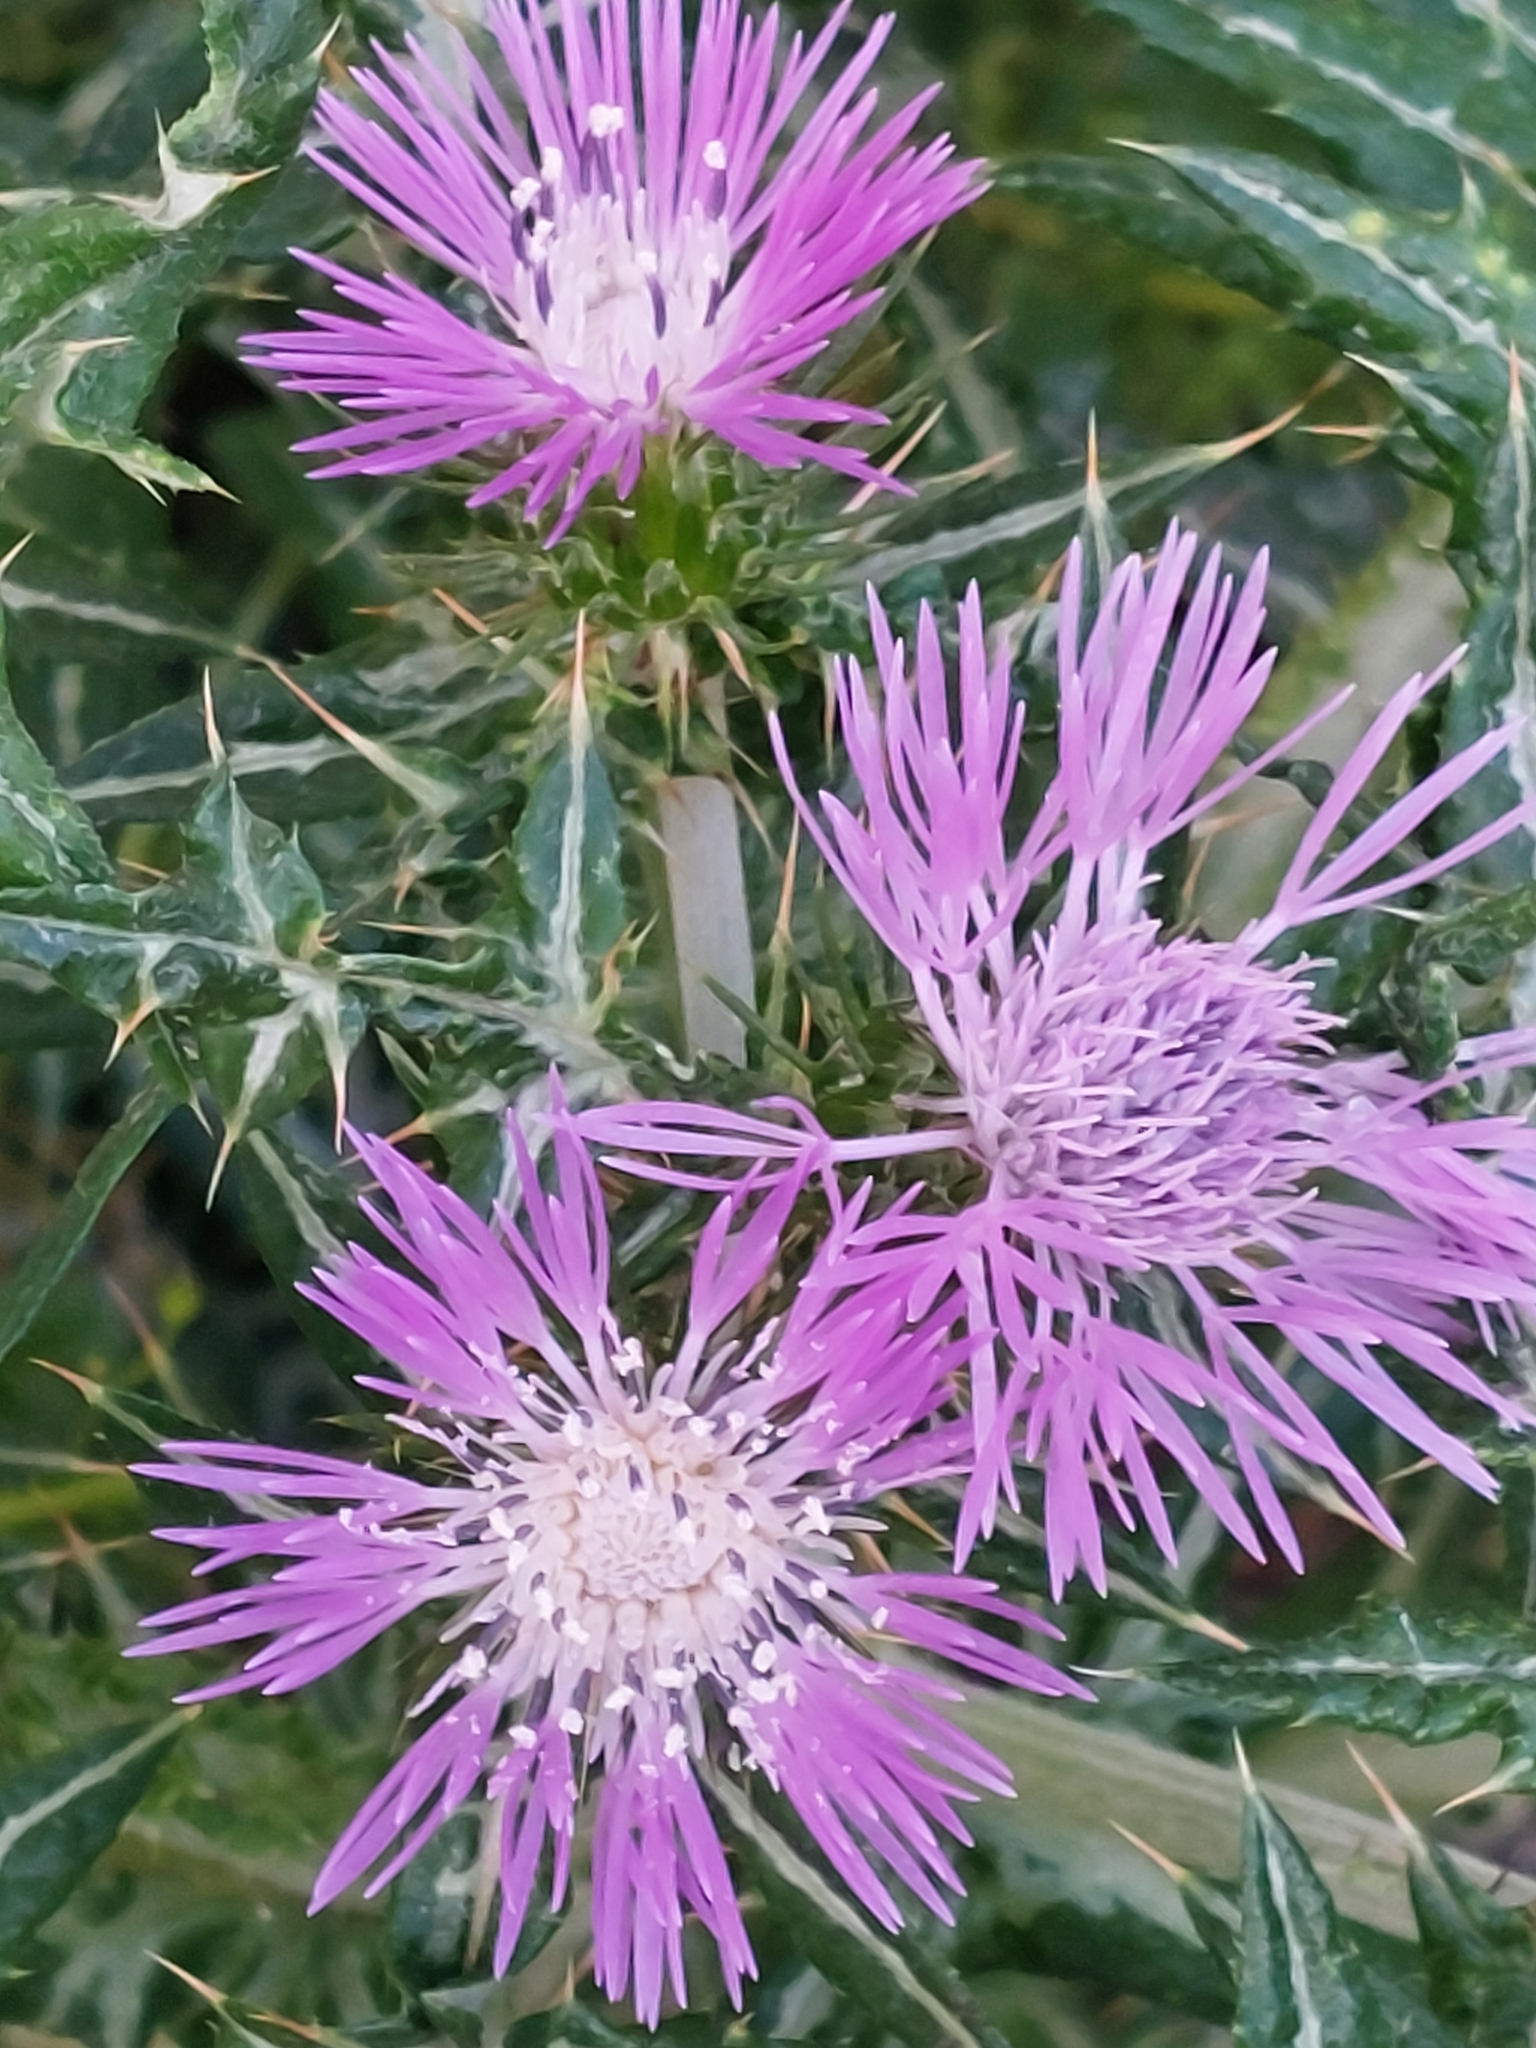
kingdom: Plantae
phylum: Tracheophyta
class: Magnoliopsida
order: Asterales
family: Asteraceae
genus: Galactites
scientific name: Galactites tomentosa
